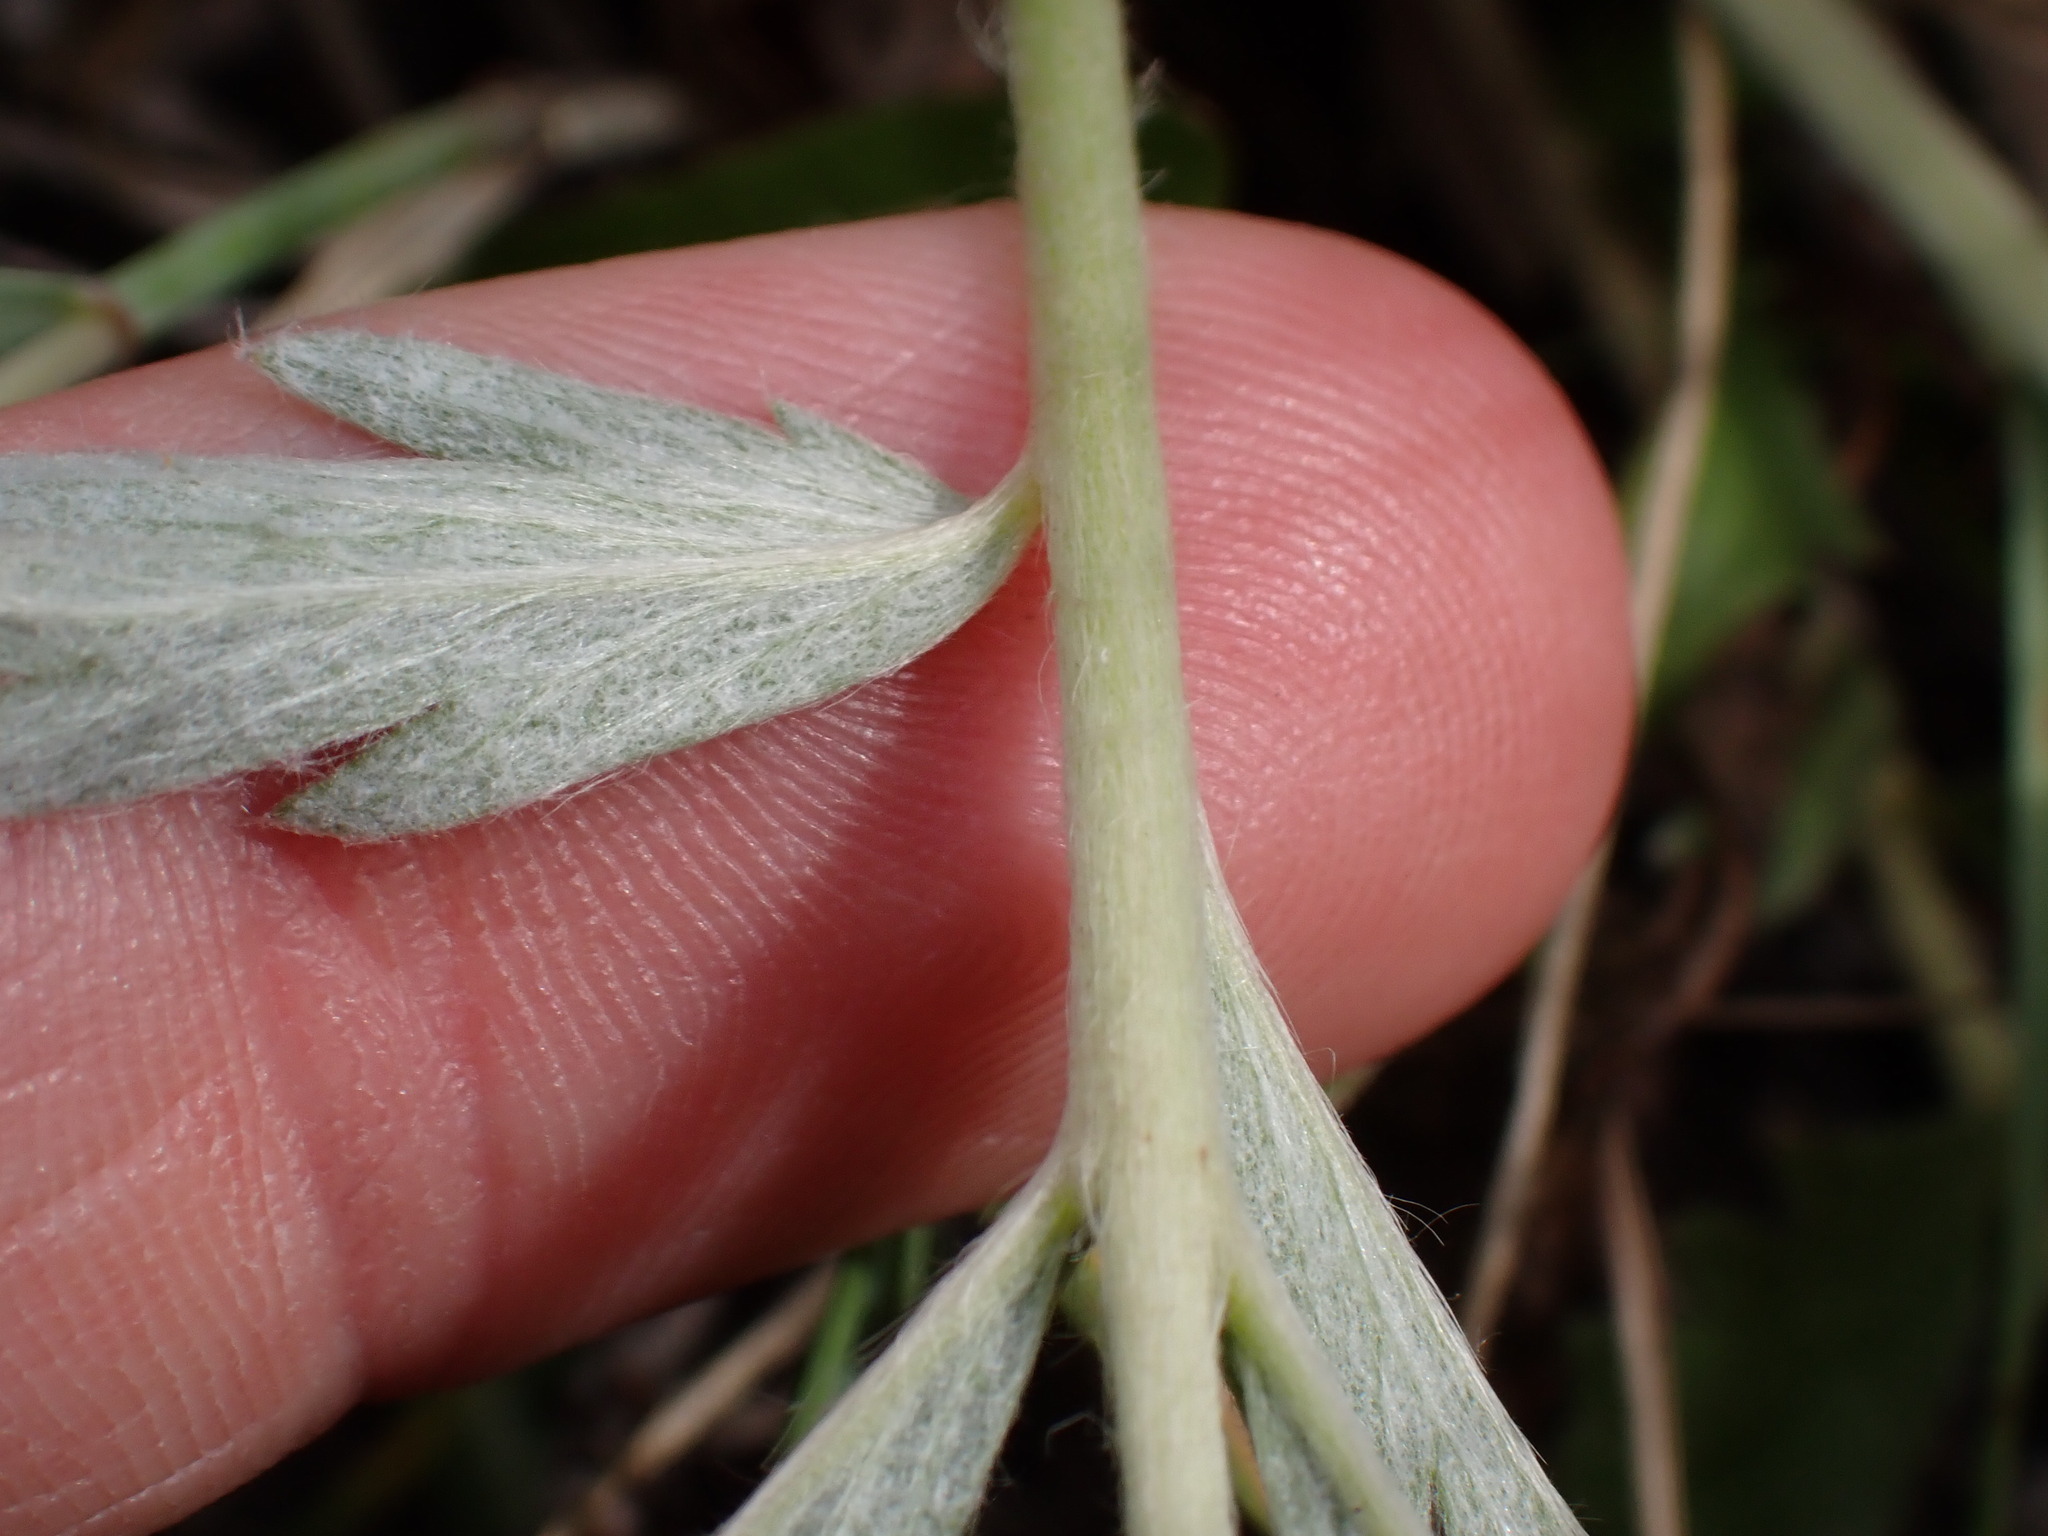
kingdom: Plantae
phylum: Tracheophyta
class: Magnoliopsida
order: Rosales
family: Rosaceae
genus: Potentilla
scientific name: Potentilla hippiana
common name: Woolly cinquefoil
